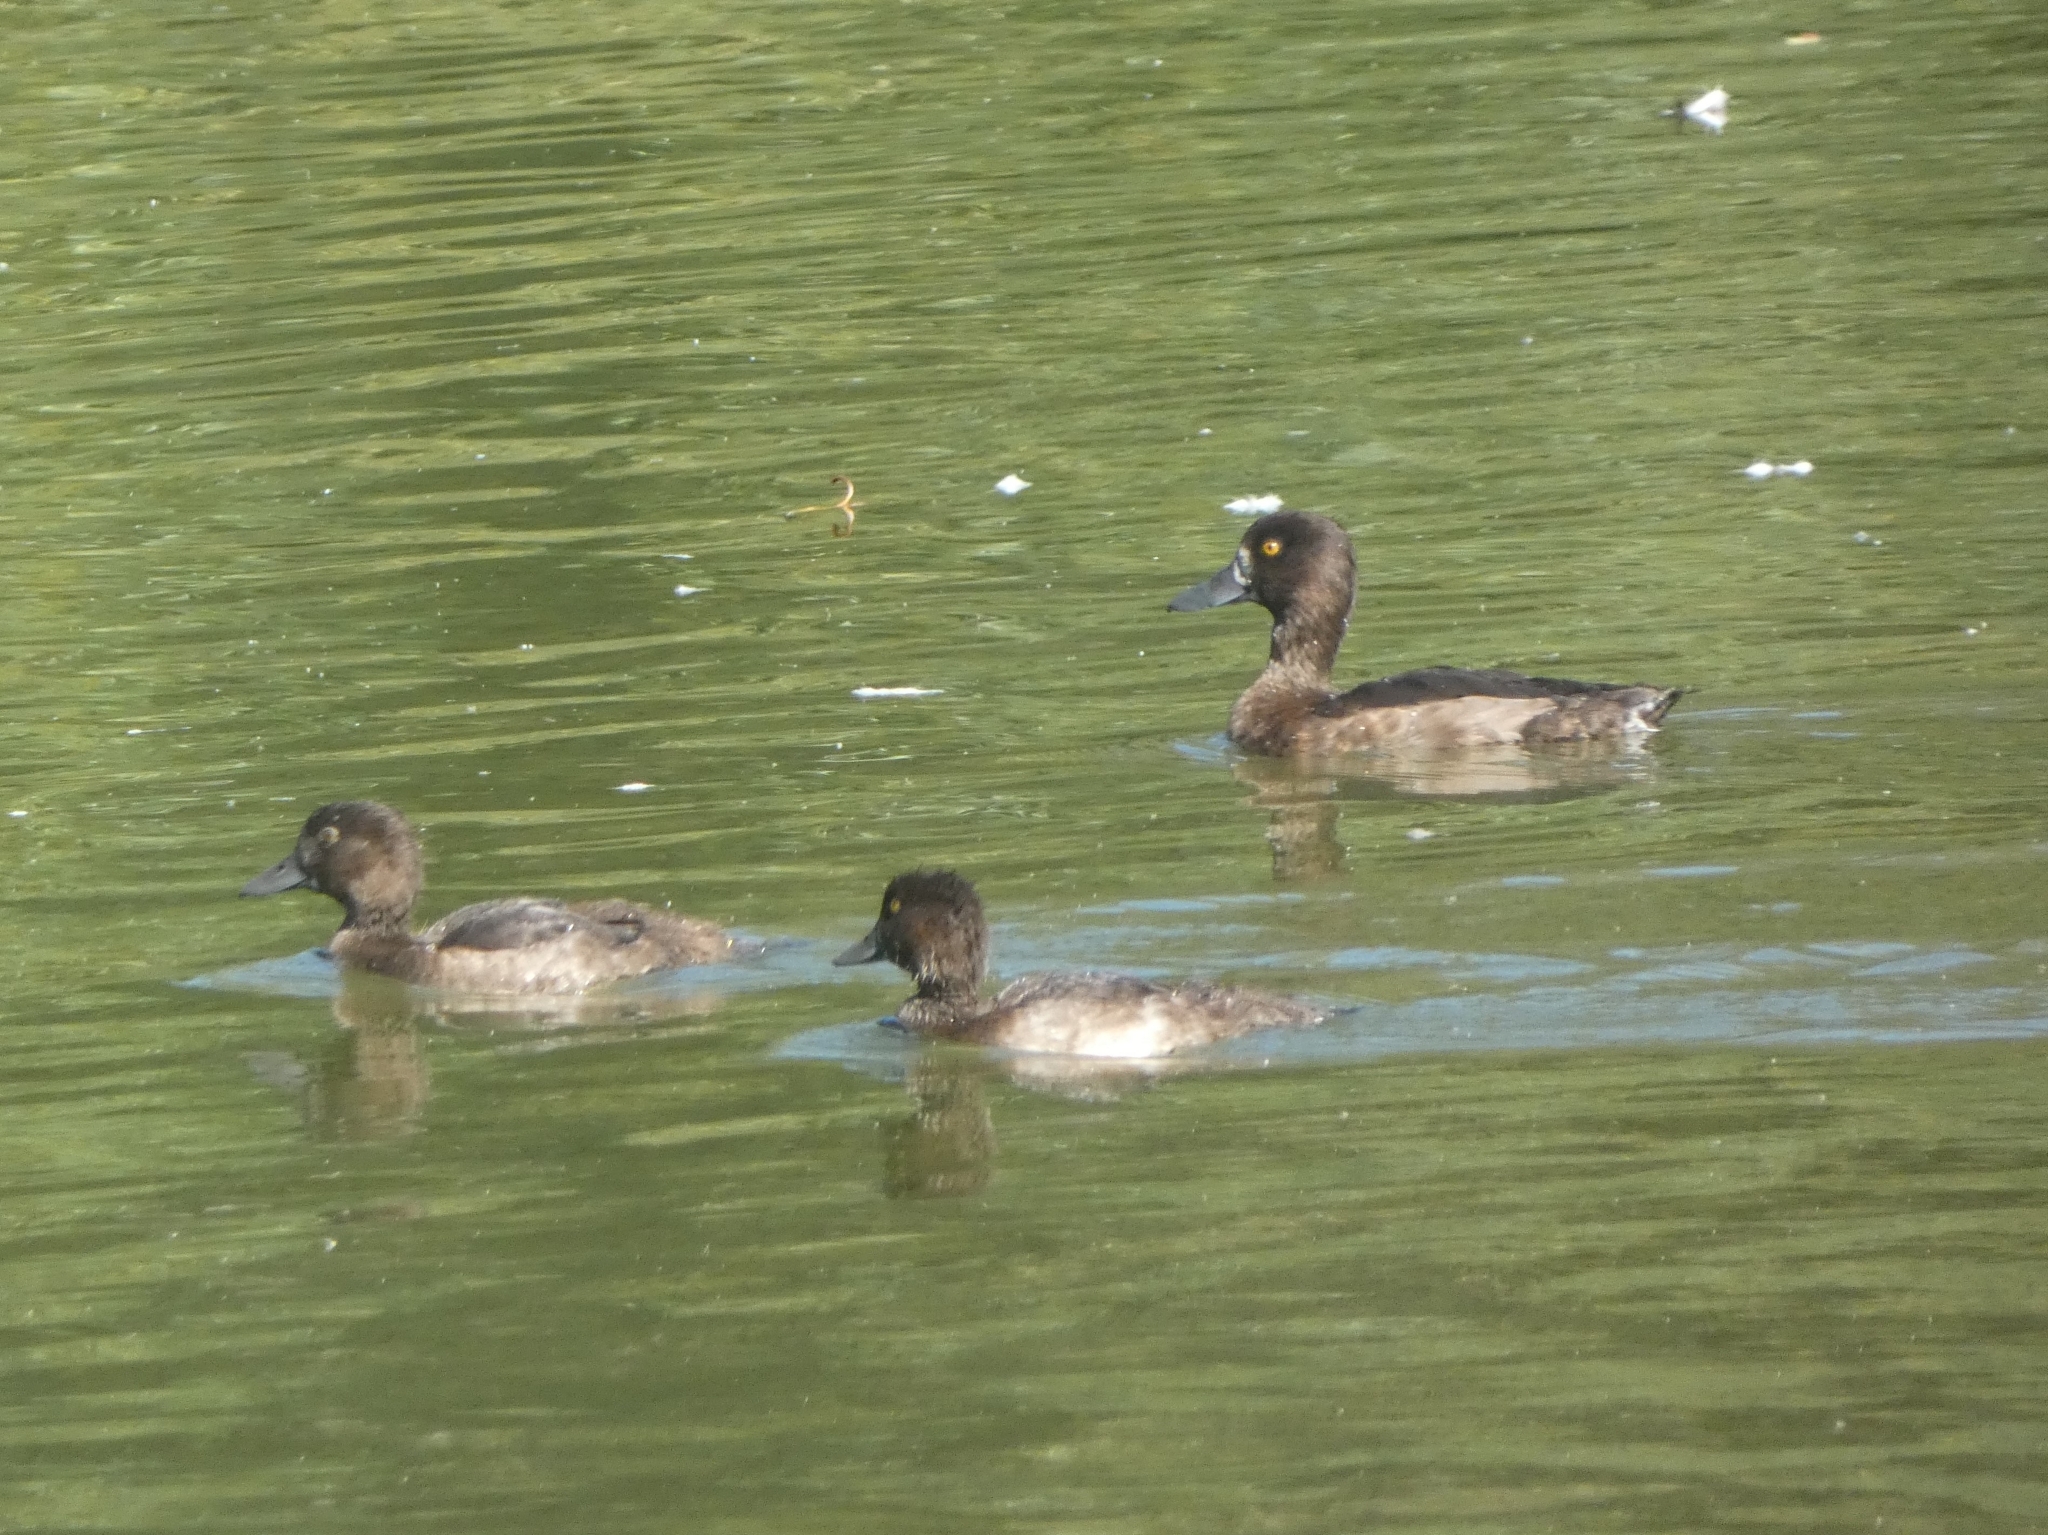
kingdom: Animalia
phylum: Chordata
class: Aves
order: Anseriformes
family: Anatidae
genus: Aythya
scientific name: Aythya fuligula
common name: Tufted duck
